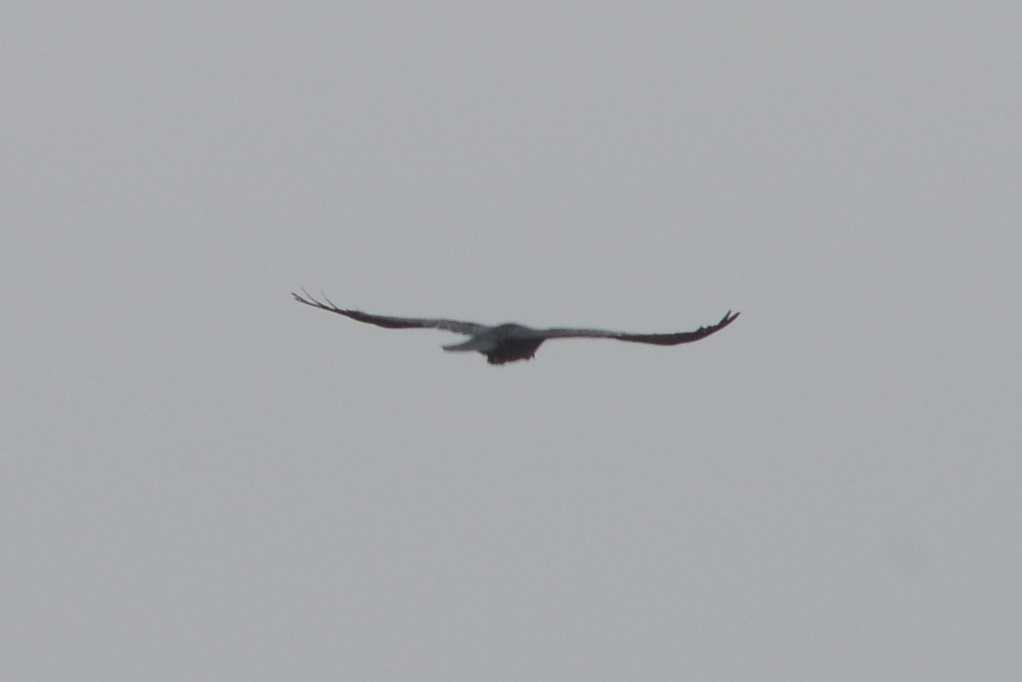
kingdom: Animalia
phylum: Chordata
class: Aves
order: Pelecaniformes
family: Ardeidae
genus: Egretta
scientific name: Egretta rufescens
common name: Reddish egret
